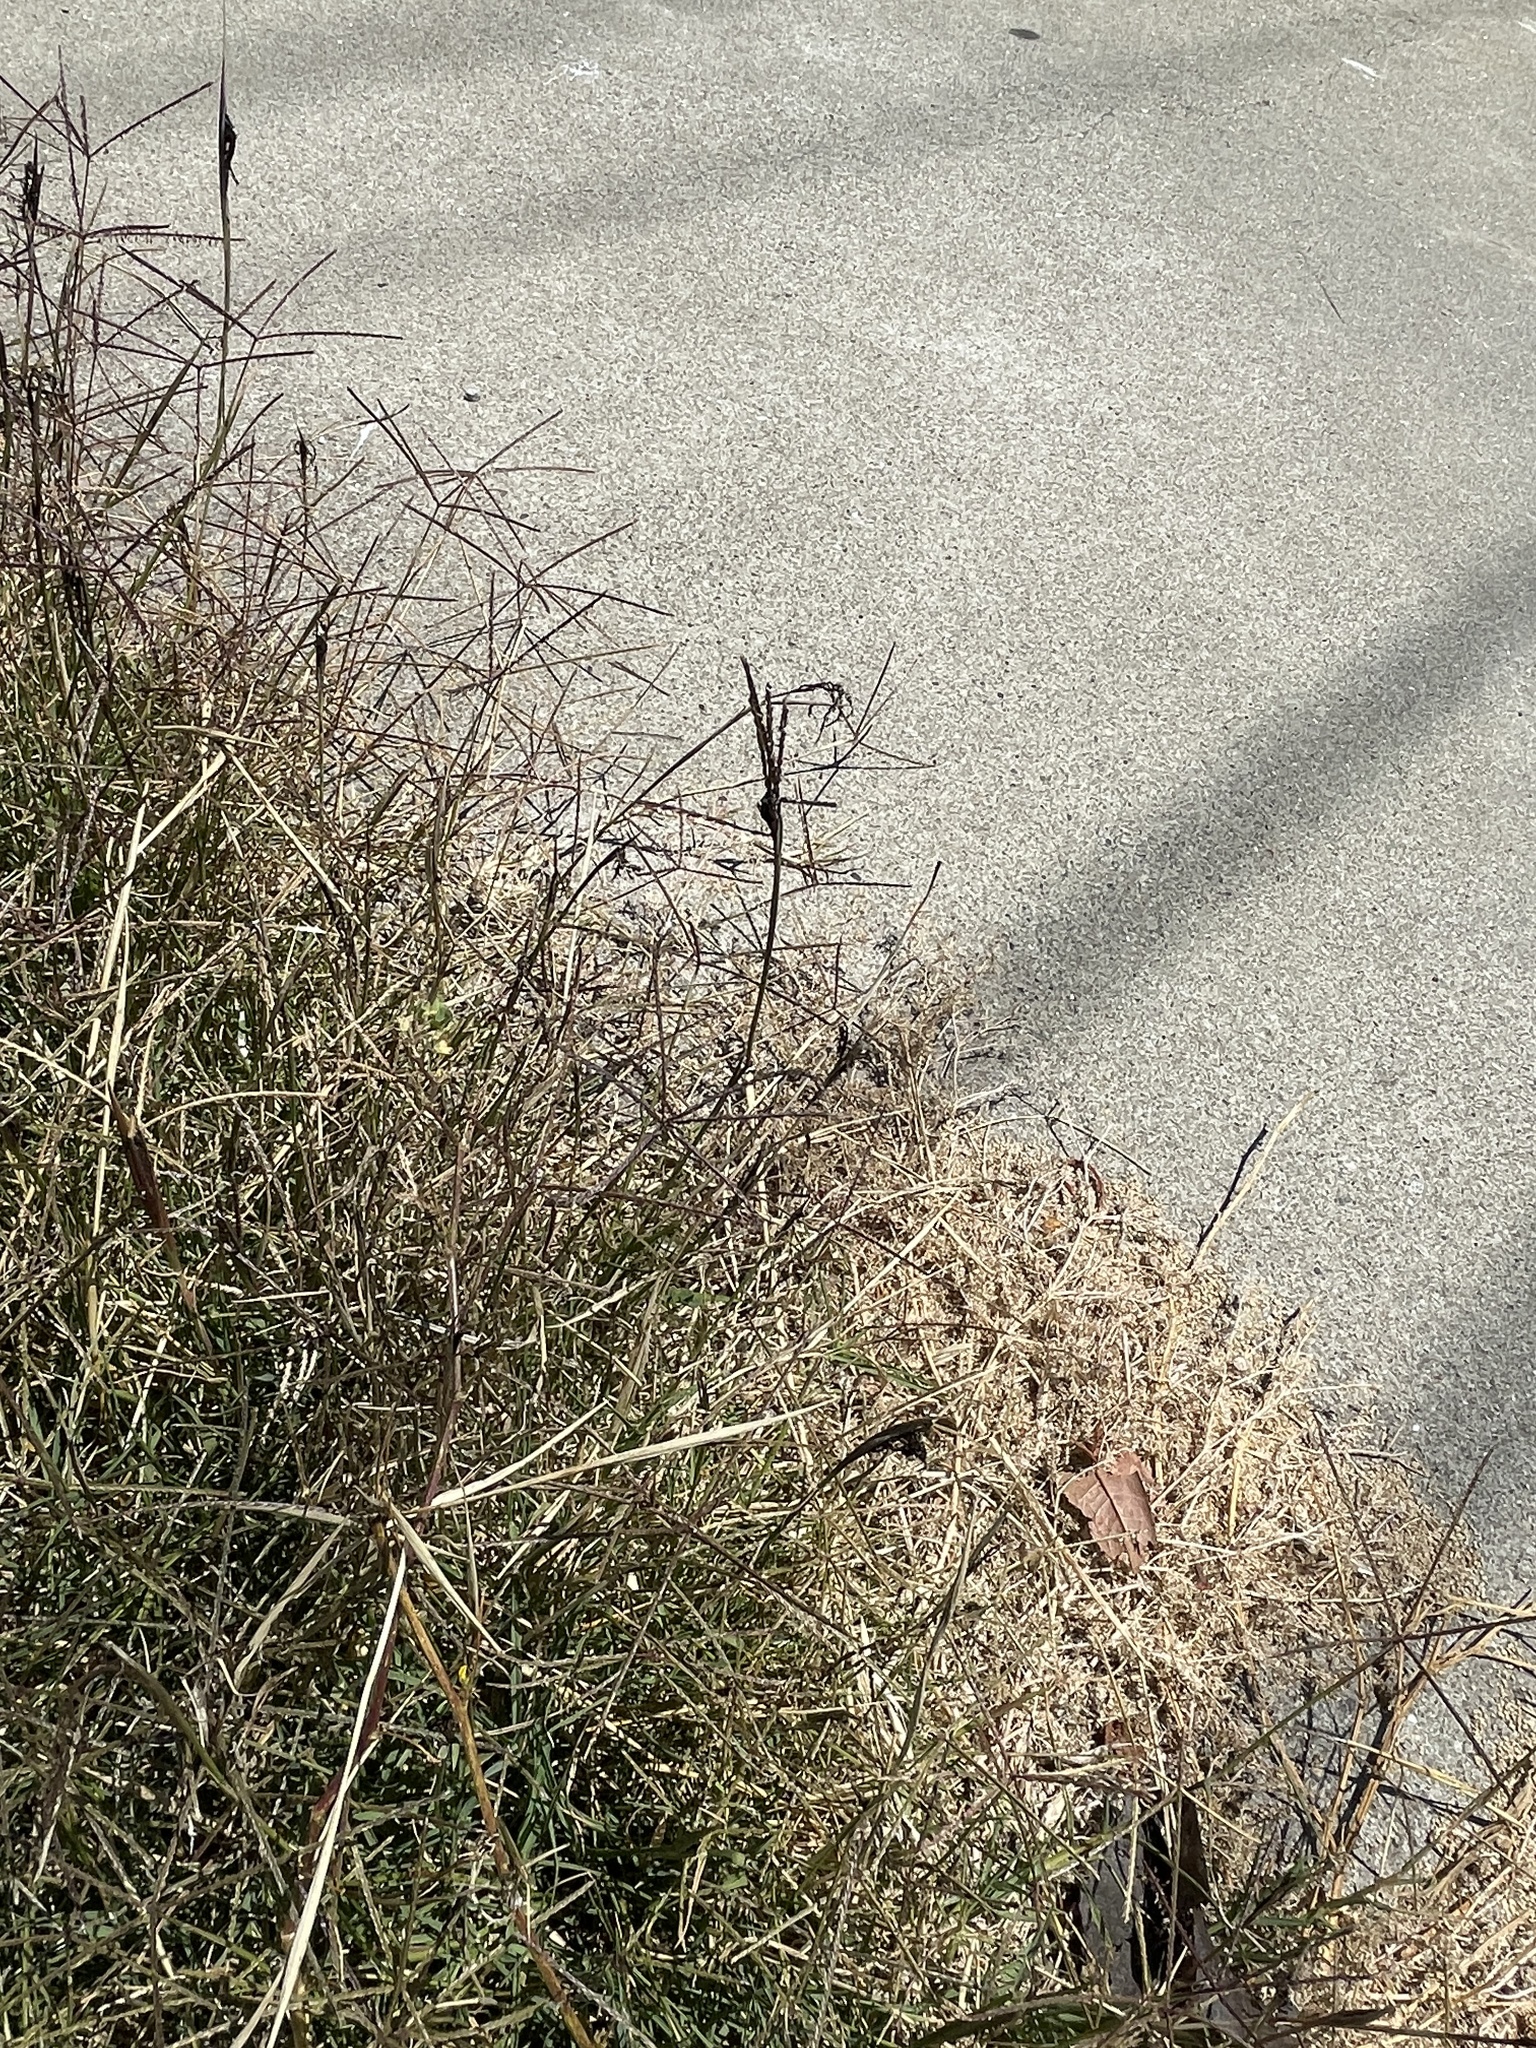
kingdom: Fungi
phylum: Basidiomycota
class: Ustilaginomycetes
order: Ustilaginales
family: Ustilaginaceae
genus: Ustilago
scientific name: Ustilago cynodontis
